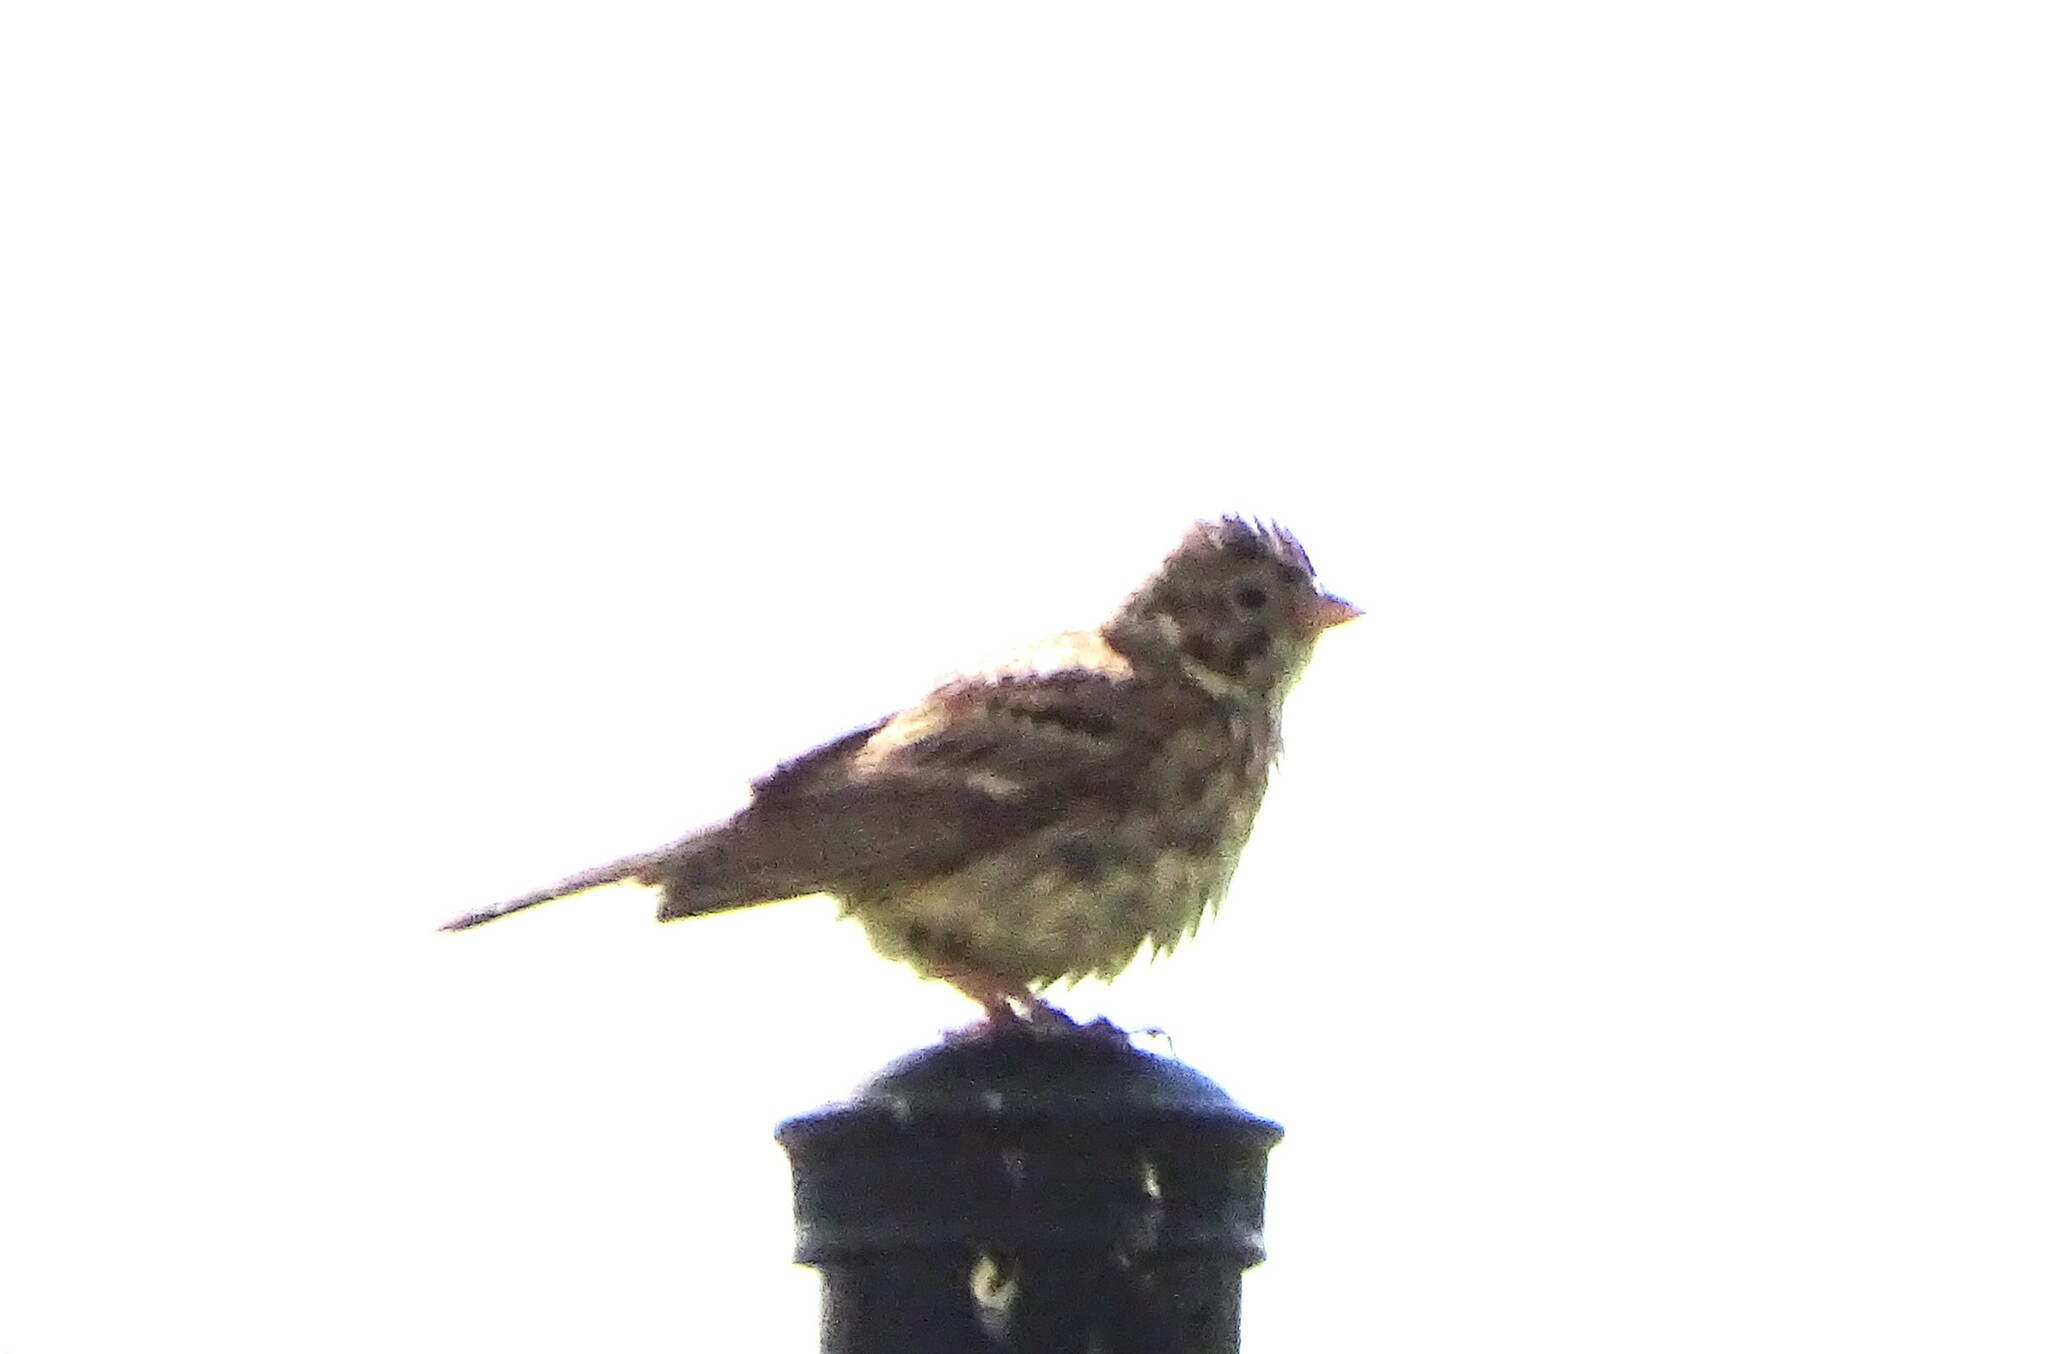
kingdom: Animalia
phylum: Chordata
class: Aves
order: Passeriformes
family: Passerellidae
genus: Pooecetes
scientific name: Pooecetes gramineus
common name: Vesper sparrow
